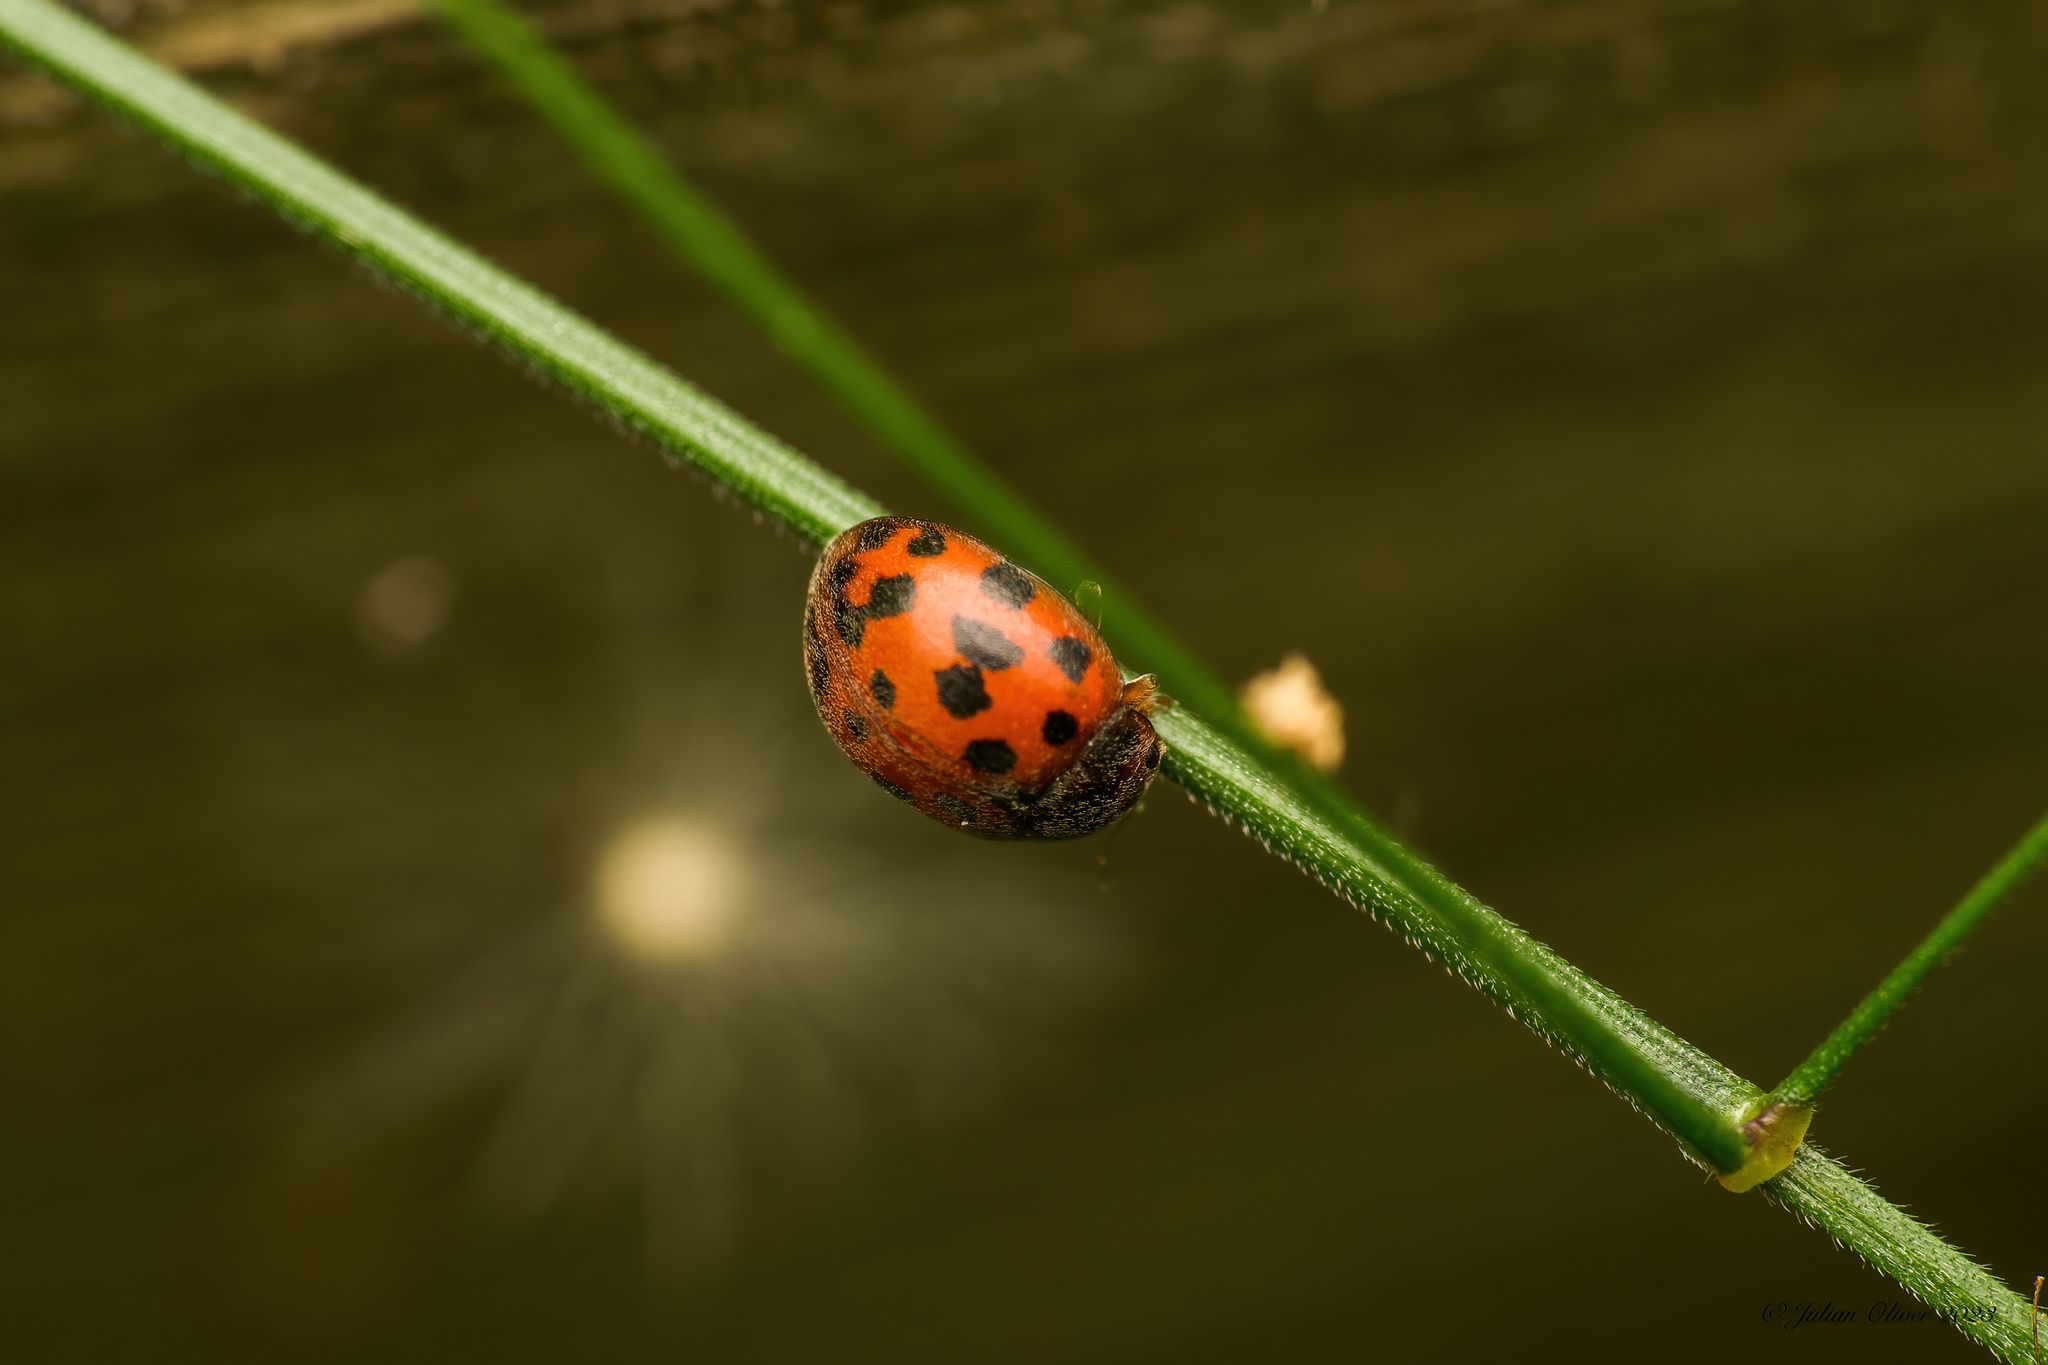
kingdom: Animalia
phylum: Arthropoda
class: Insecta
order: Coleoptera
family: Coccinellidae
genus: Subcoccinella
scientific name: Subcoccinella vigintiquatuorpunctata
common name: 24-spot ladybird
